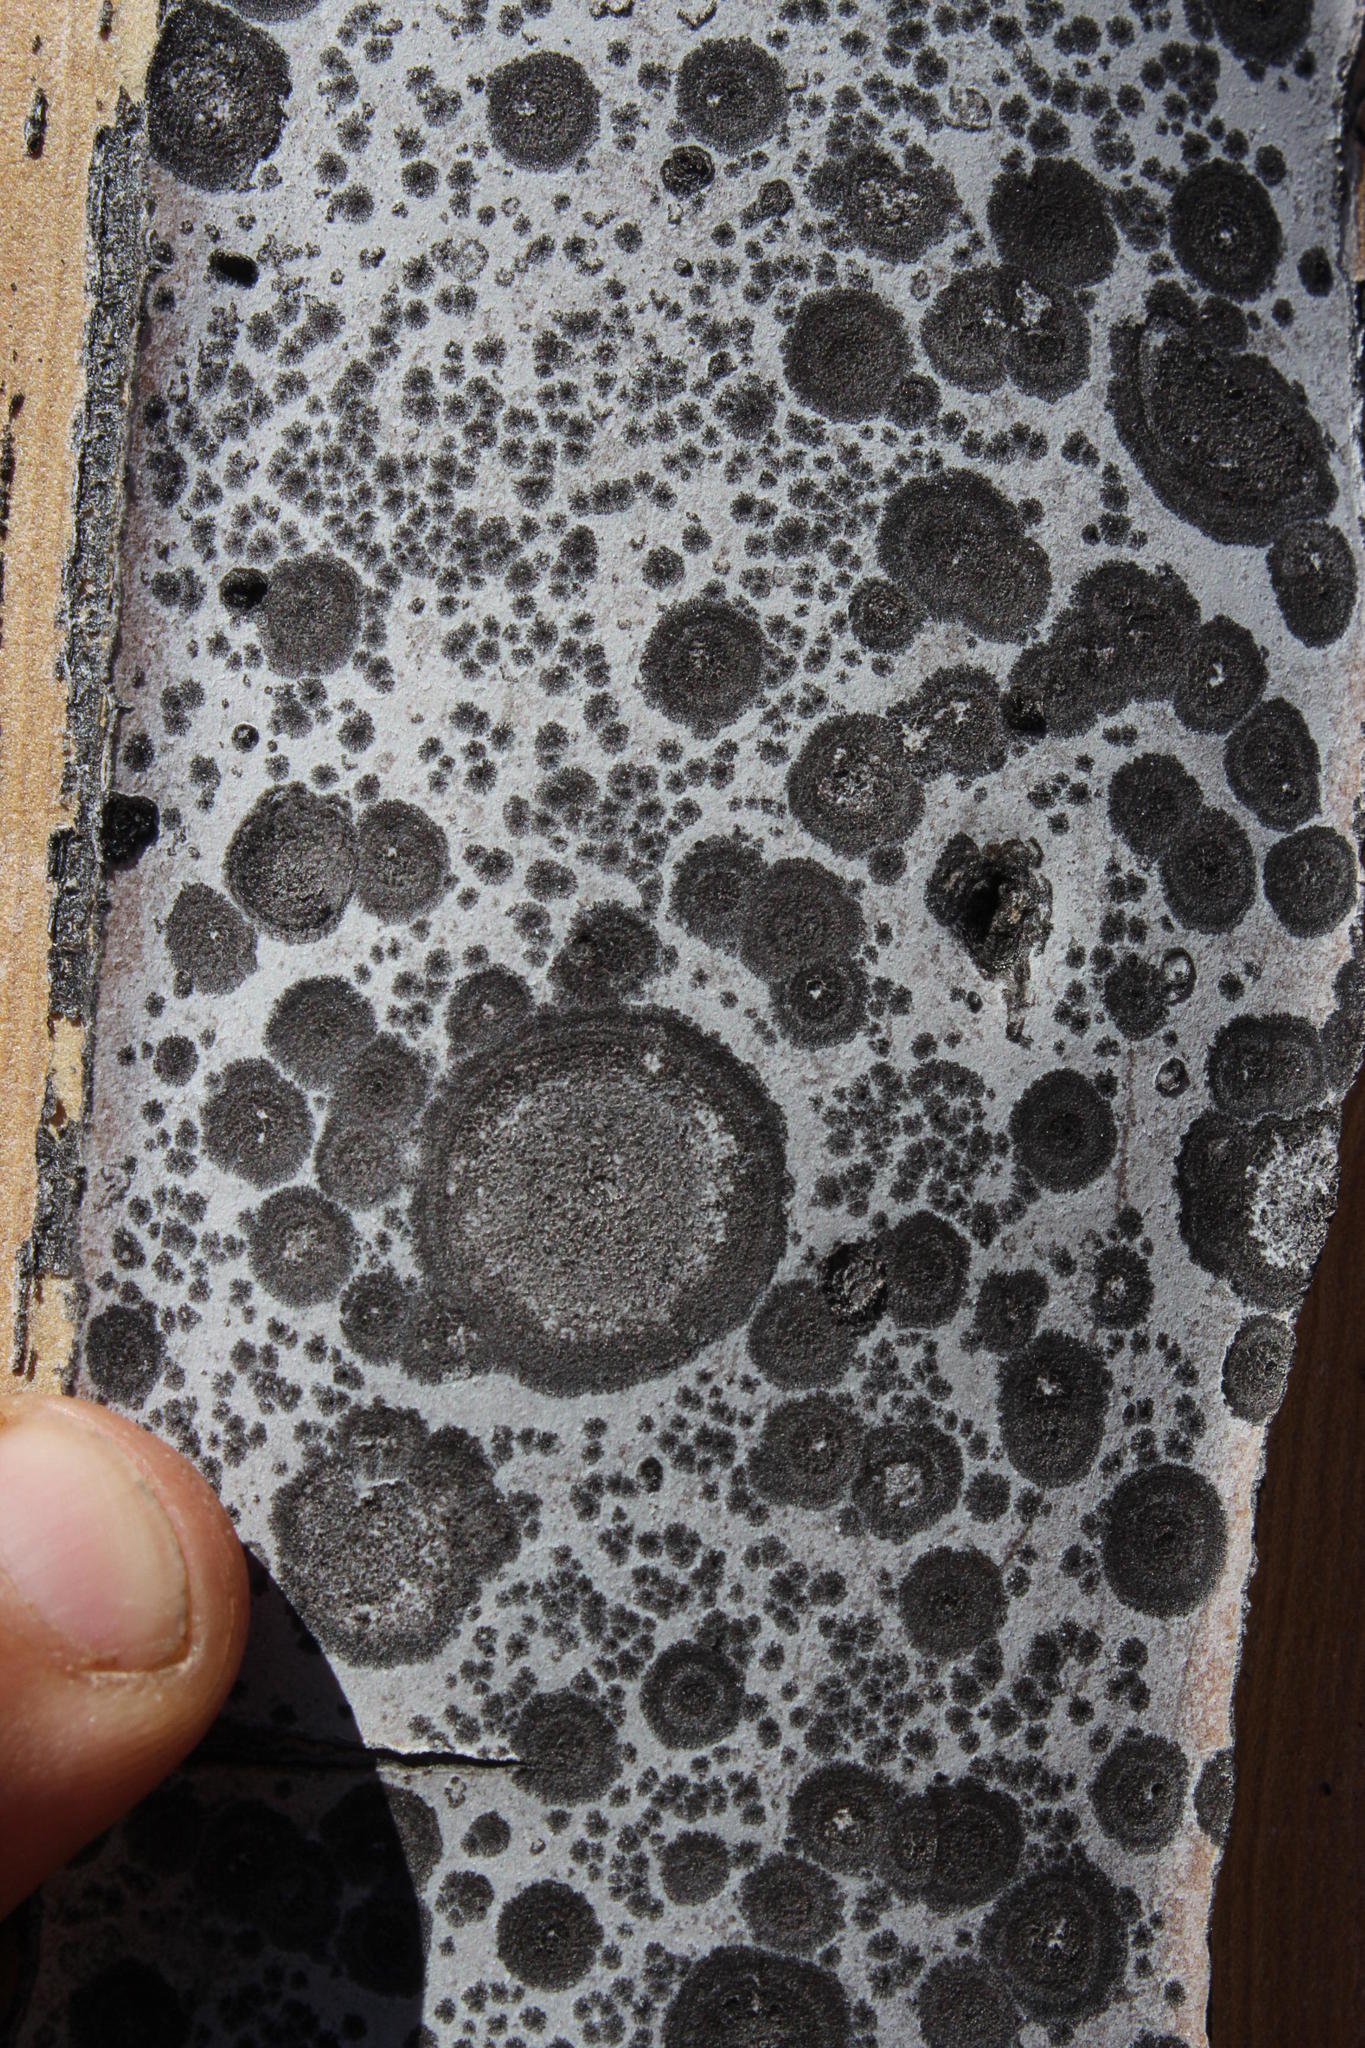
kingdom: Plantae
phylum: Tracheophyta
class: Liliopsida
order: Asparagales
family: Asphodelaceae
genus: Aloidendron
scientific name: Aloidendron dichotomum
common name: Quiver tree
